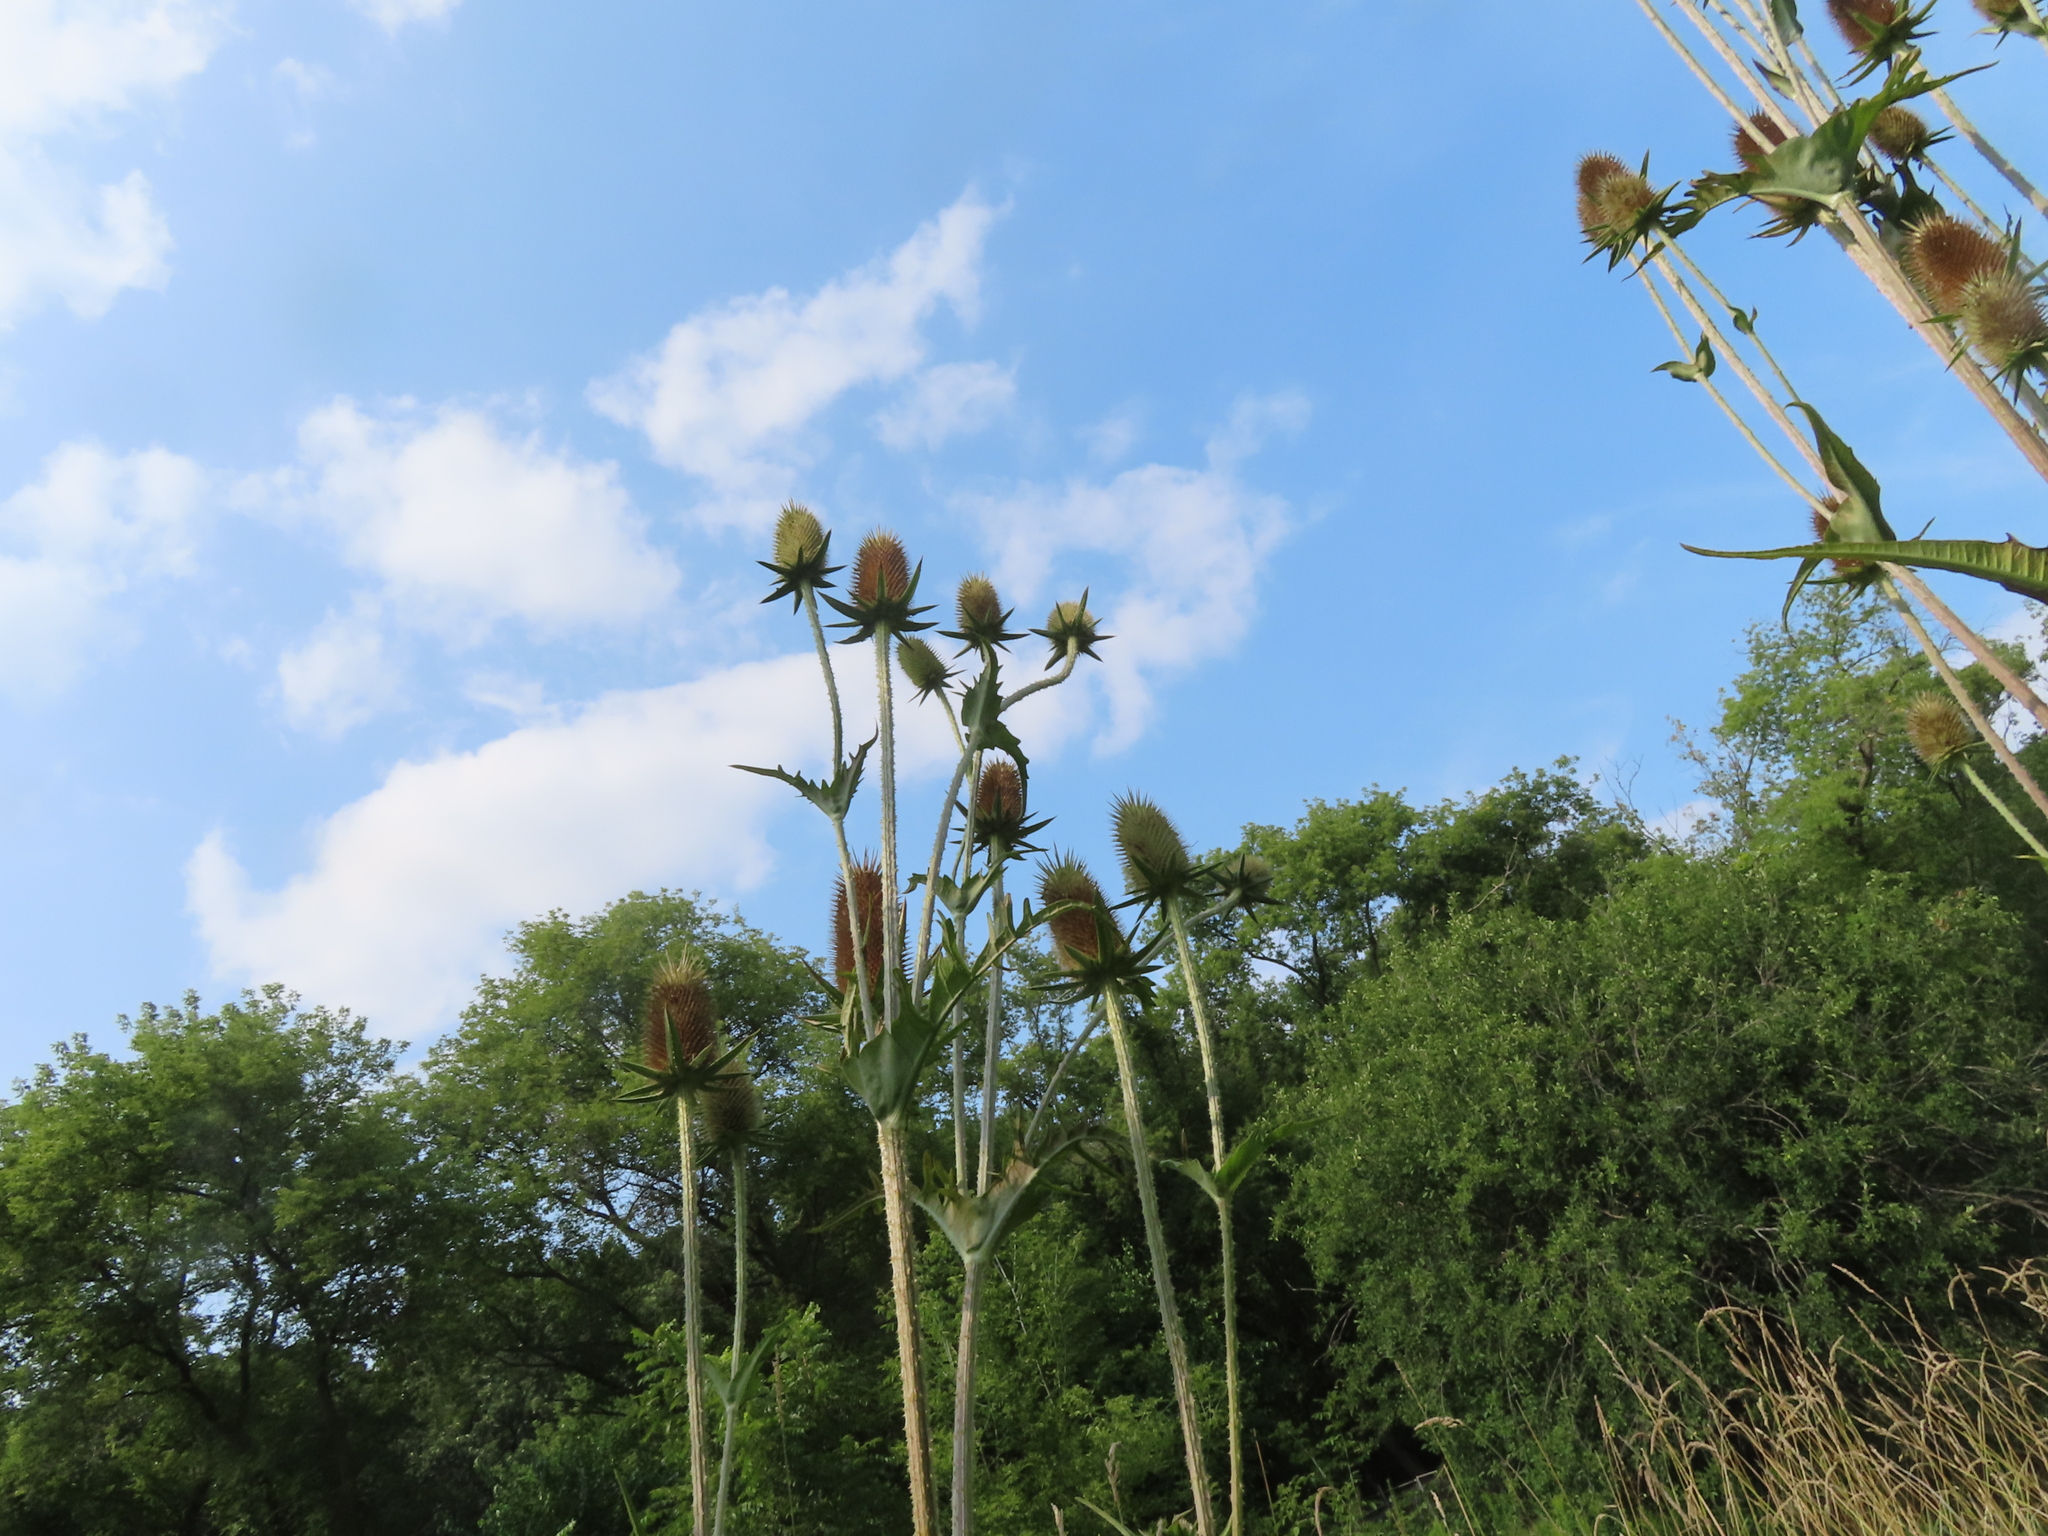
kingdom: Plantae
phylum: Tracheophyta
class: Magnoliopsida
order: Dipsacales
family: Caprifoliaceae
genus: Dipsacus
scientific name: Dipsacus laciniatus
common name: Cut-leaved teasel
